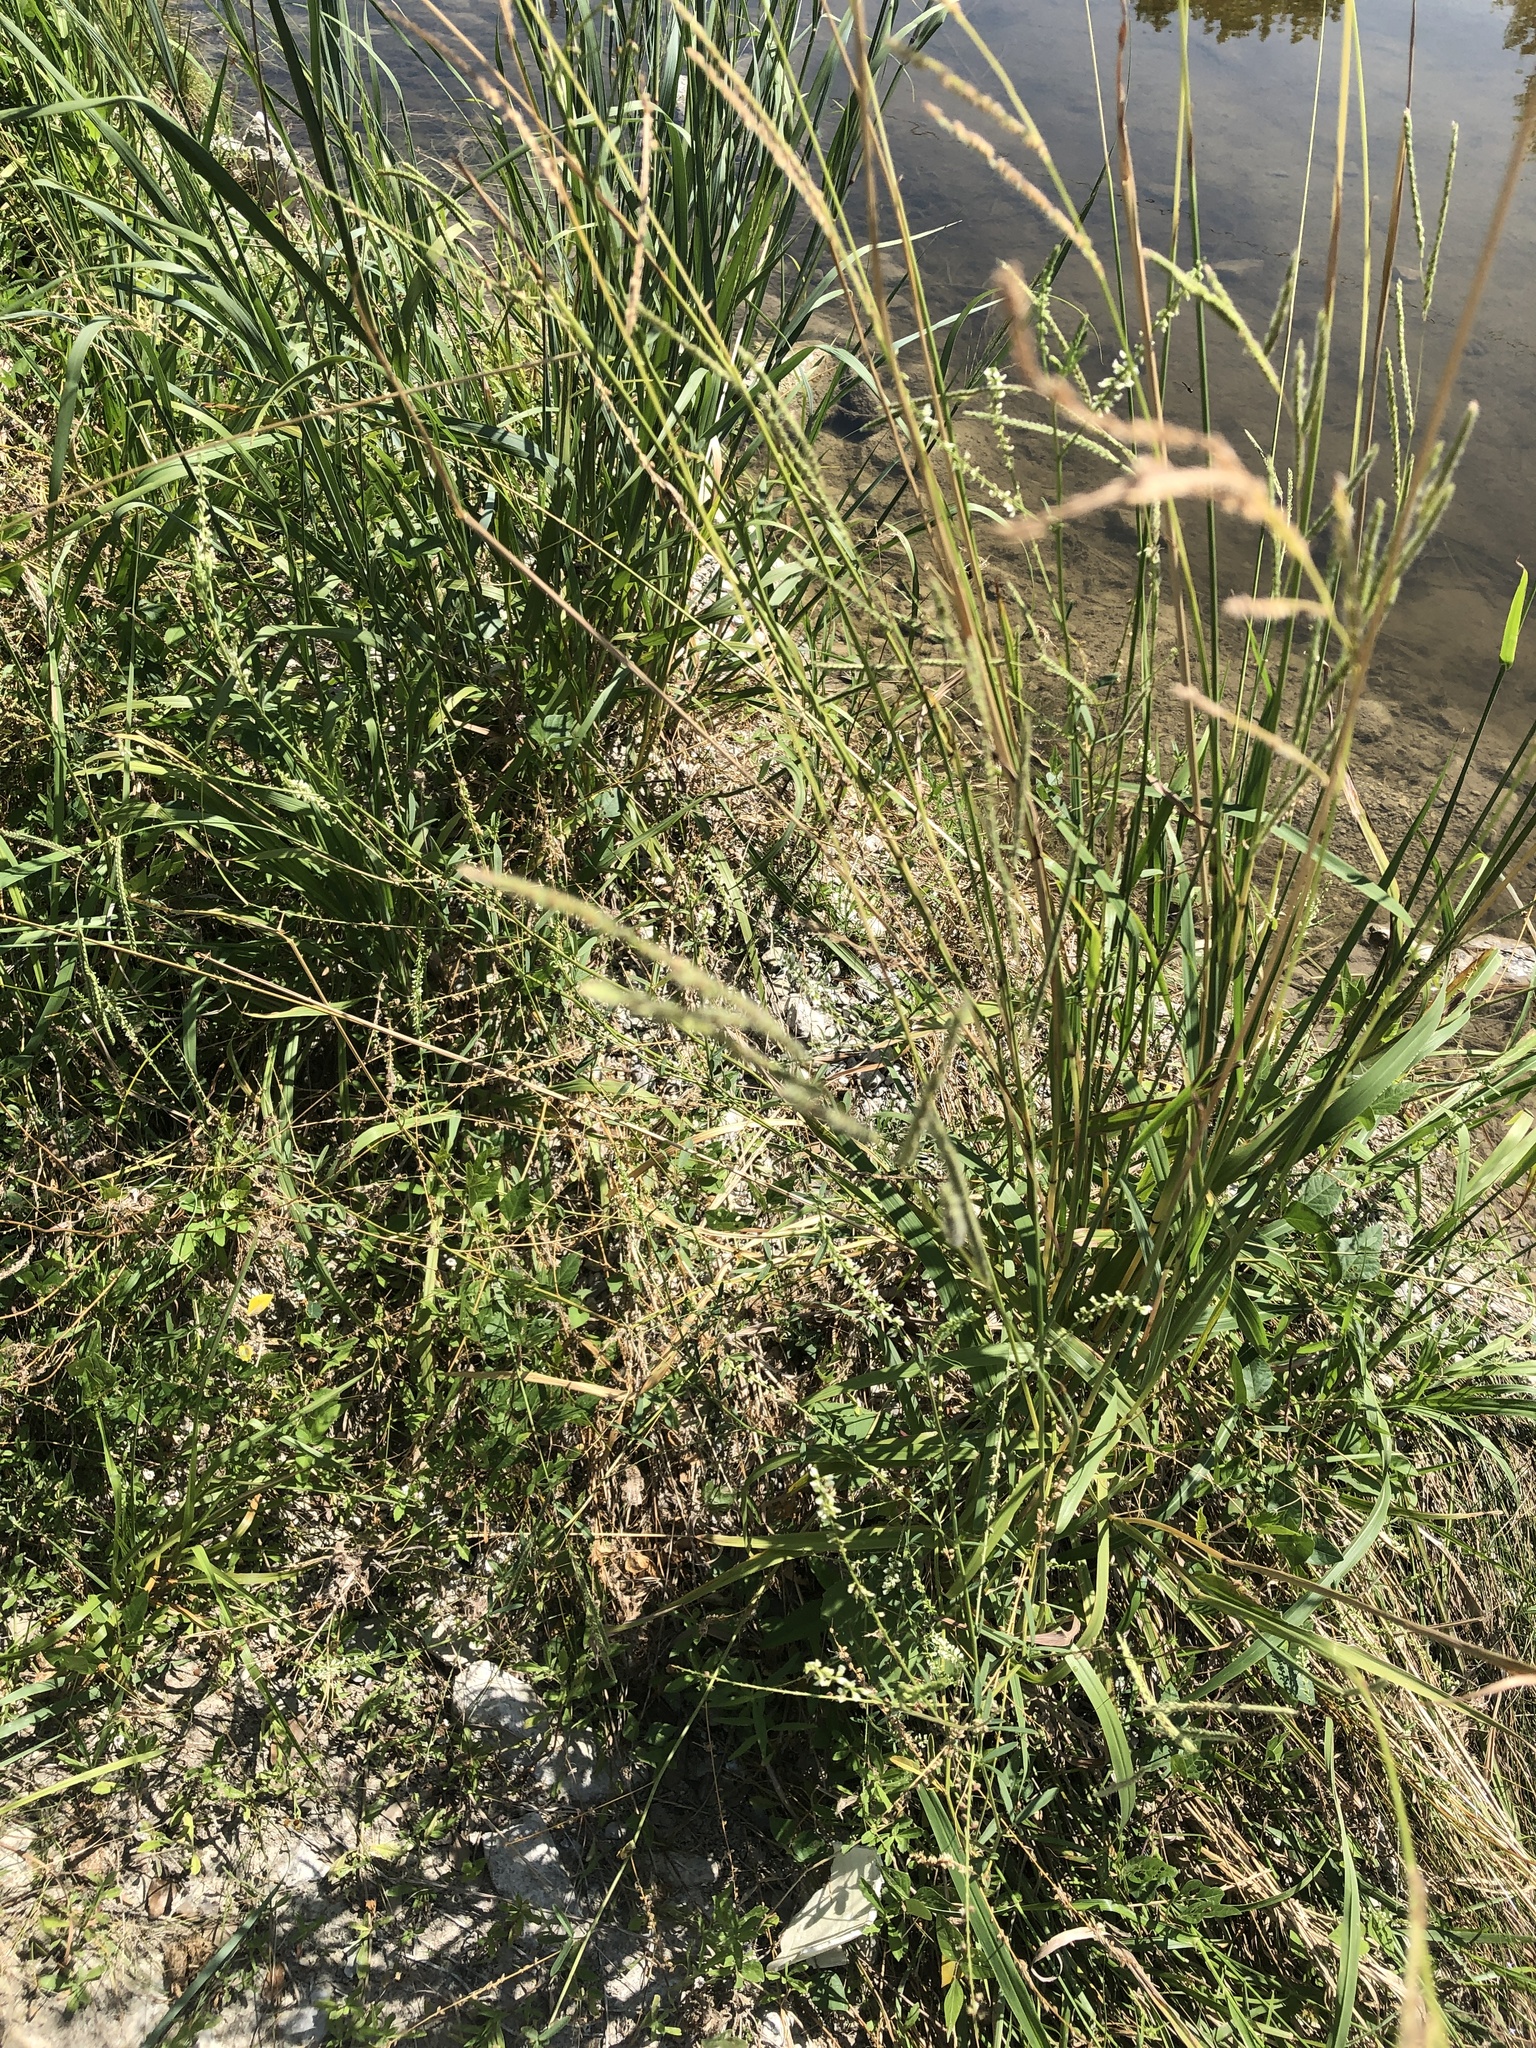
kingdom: Plantae
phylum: Tracheophyta
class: Magnoliopsida
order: Fabales
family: Fabaceae
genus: Melilotus
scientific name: Melilotus albus
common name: White melilot
